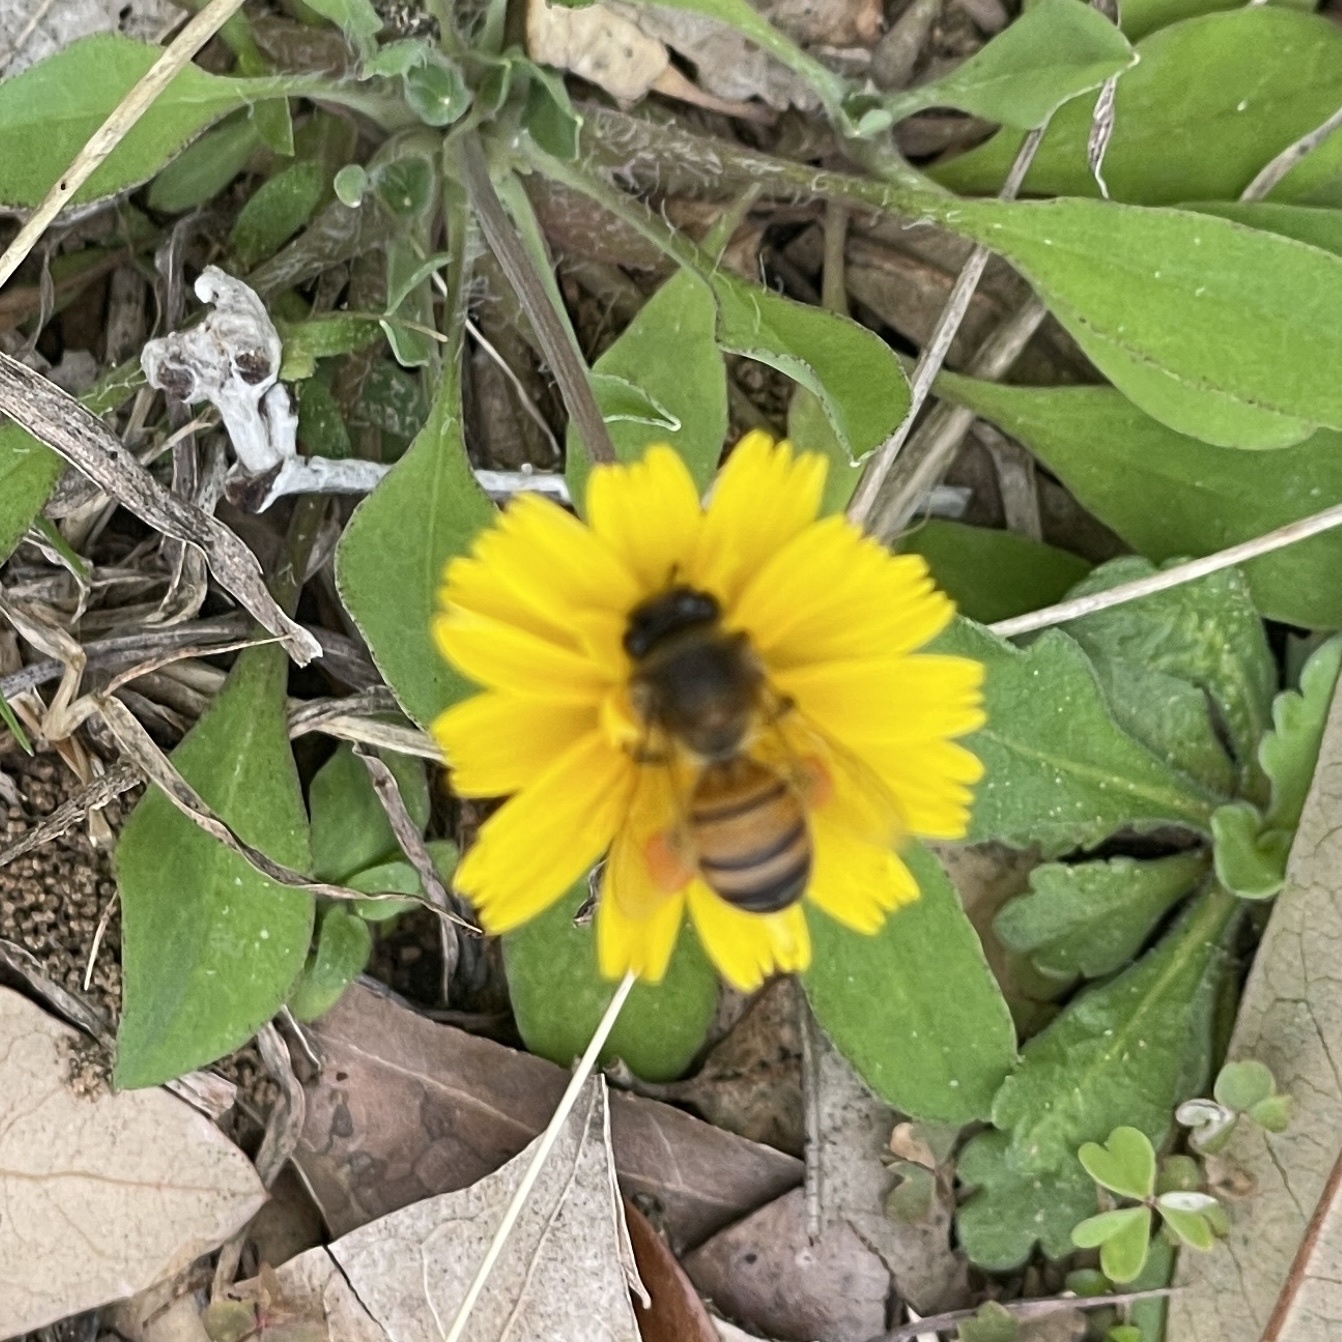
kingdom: Animalia
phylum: Arthropoda
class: Insecta
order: Hymenoptera
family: Apidae
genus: Apis
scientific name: Apis mellifera
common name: Honey bee
